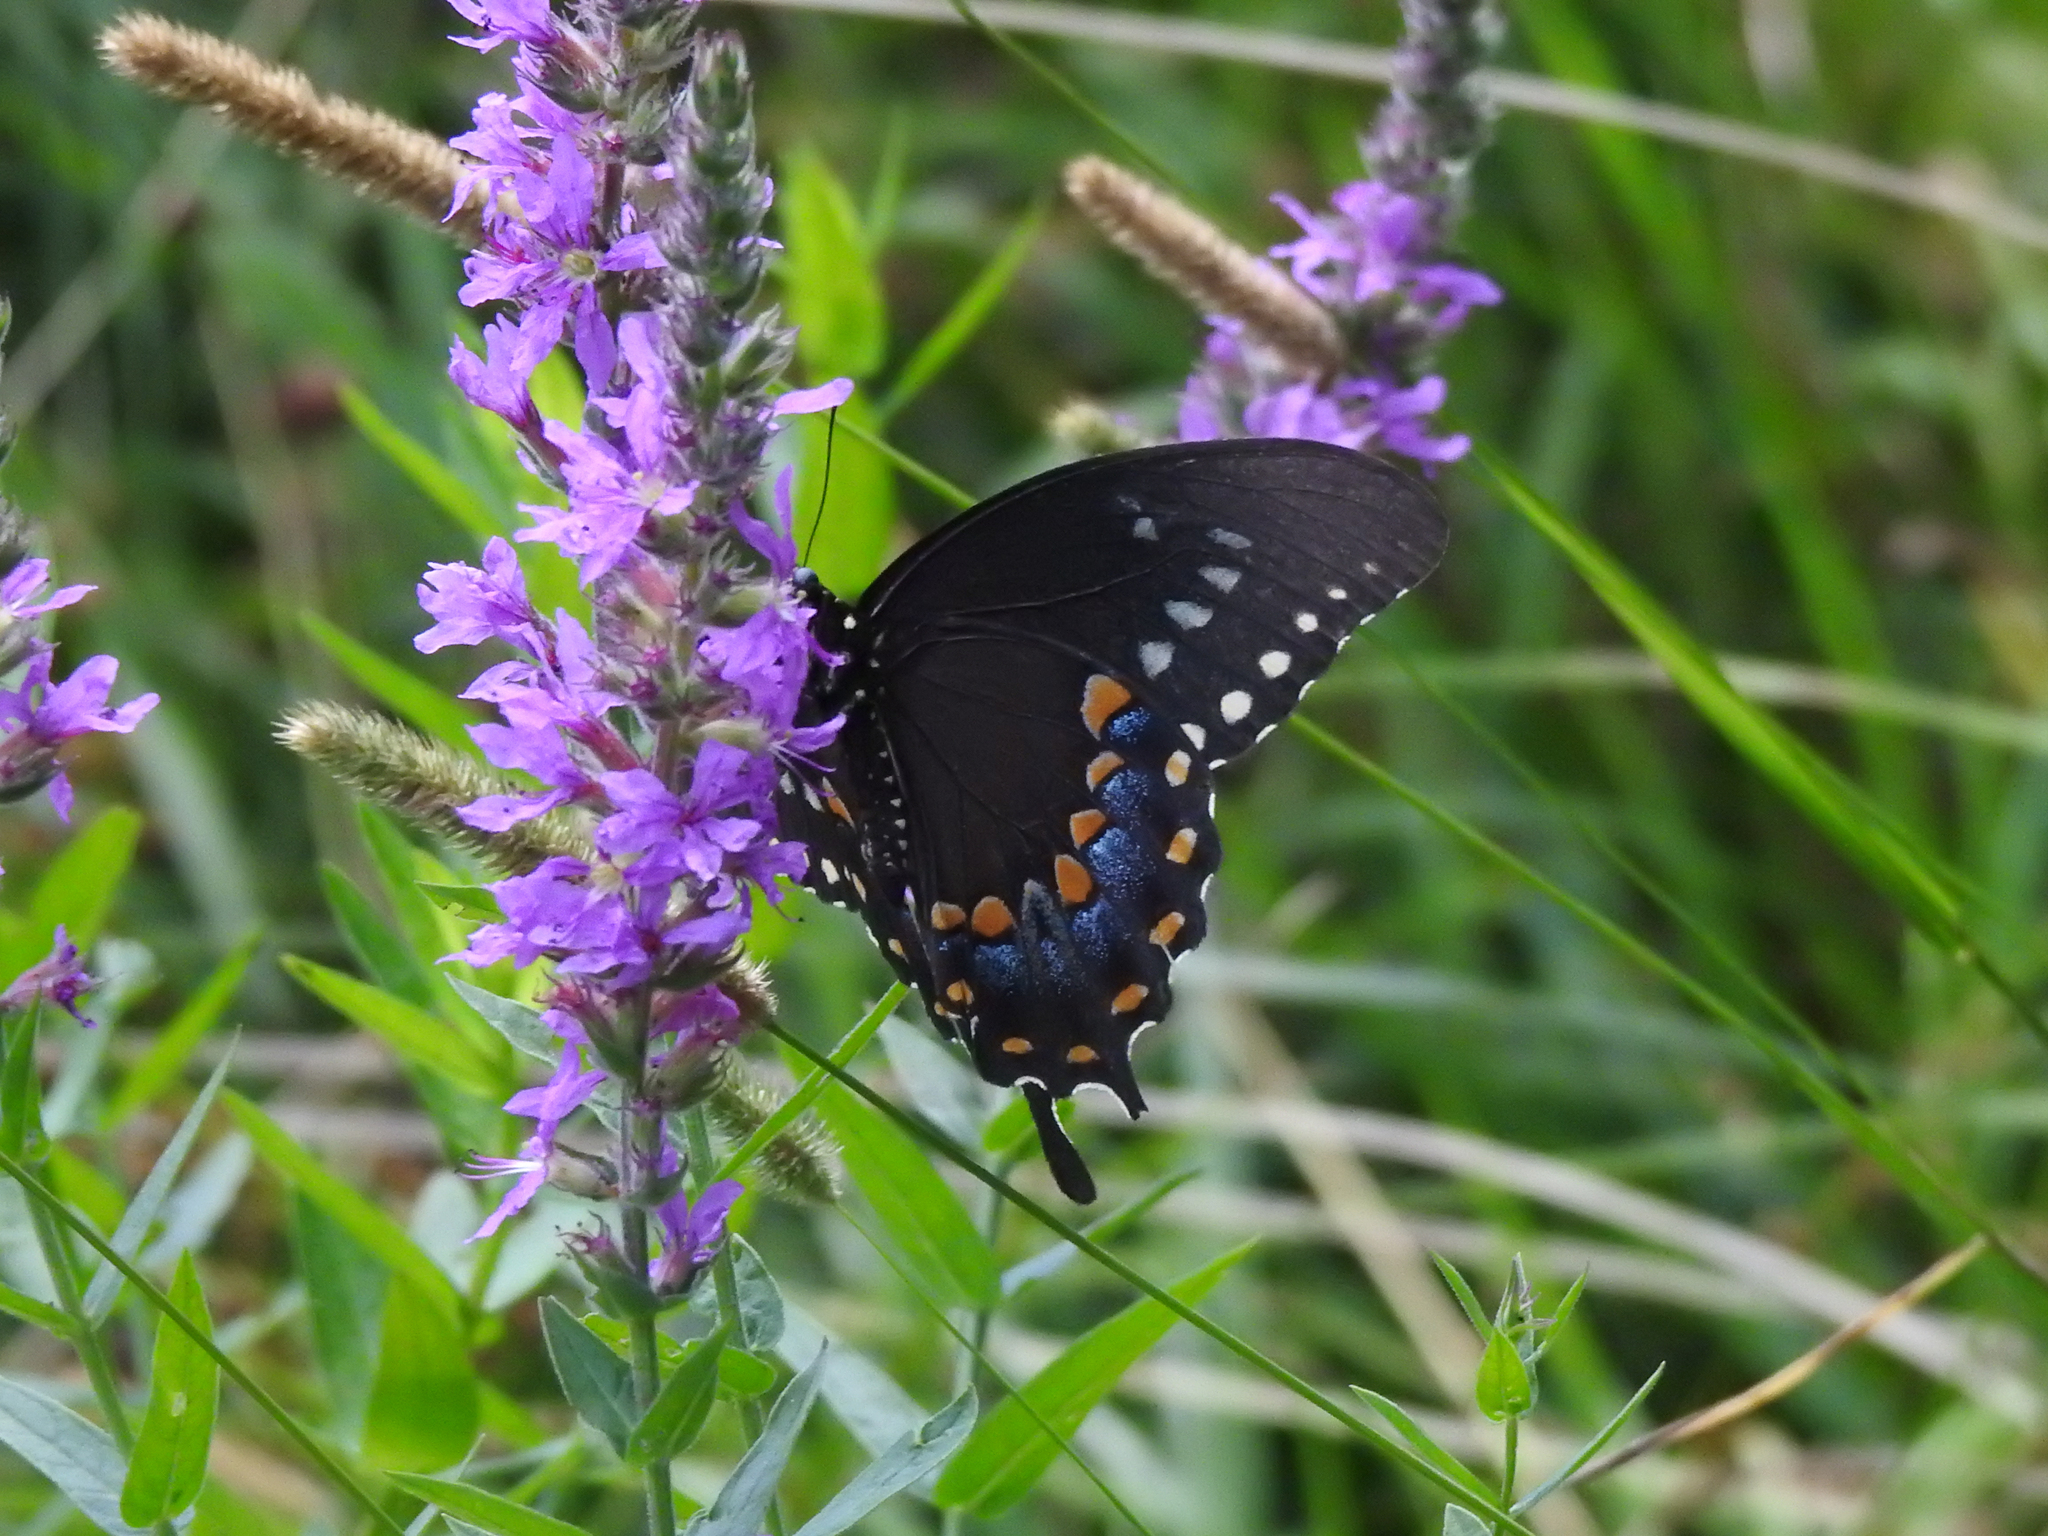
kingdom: Animalia
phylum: Arthropoda
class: Insecta
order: Lepidoptera
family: Papilionidae
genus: Papilio
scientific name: Papilio troilus
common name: Spicebush swallowtail
